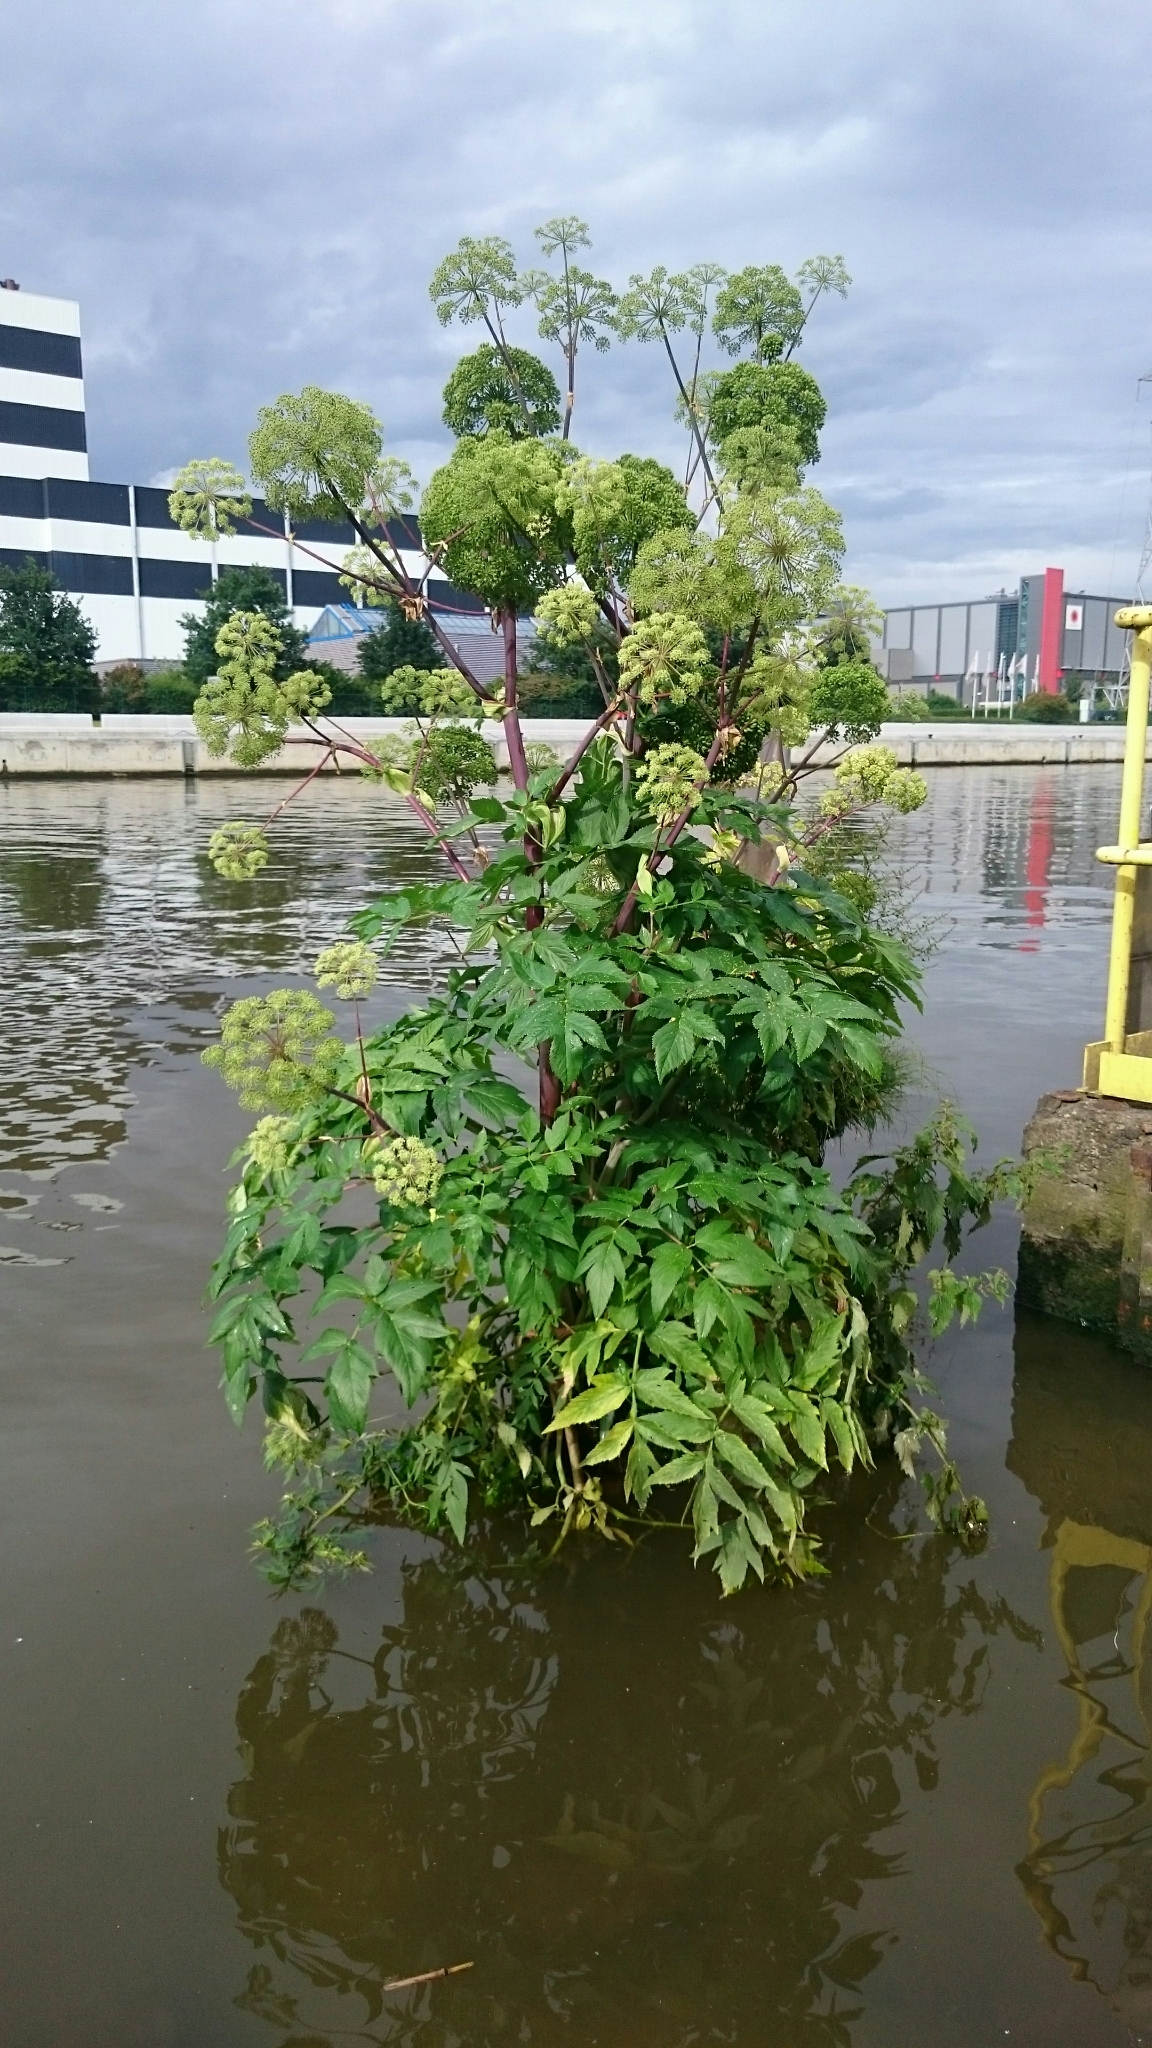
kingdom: Plantae
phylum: Tracheophyta
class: Magnoliopsida
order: Apiales
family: Apiaceae
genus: Angelica
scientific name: Angelica archangelica
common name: Garden angelica
